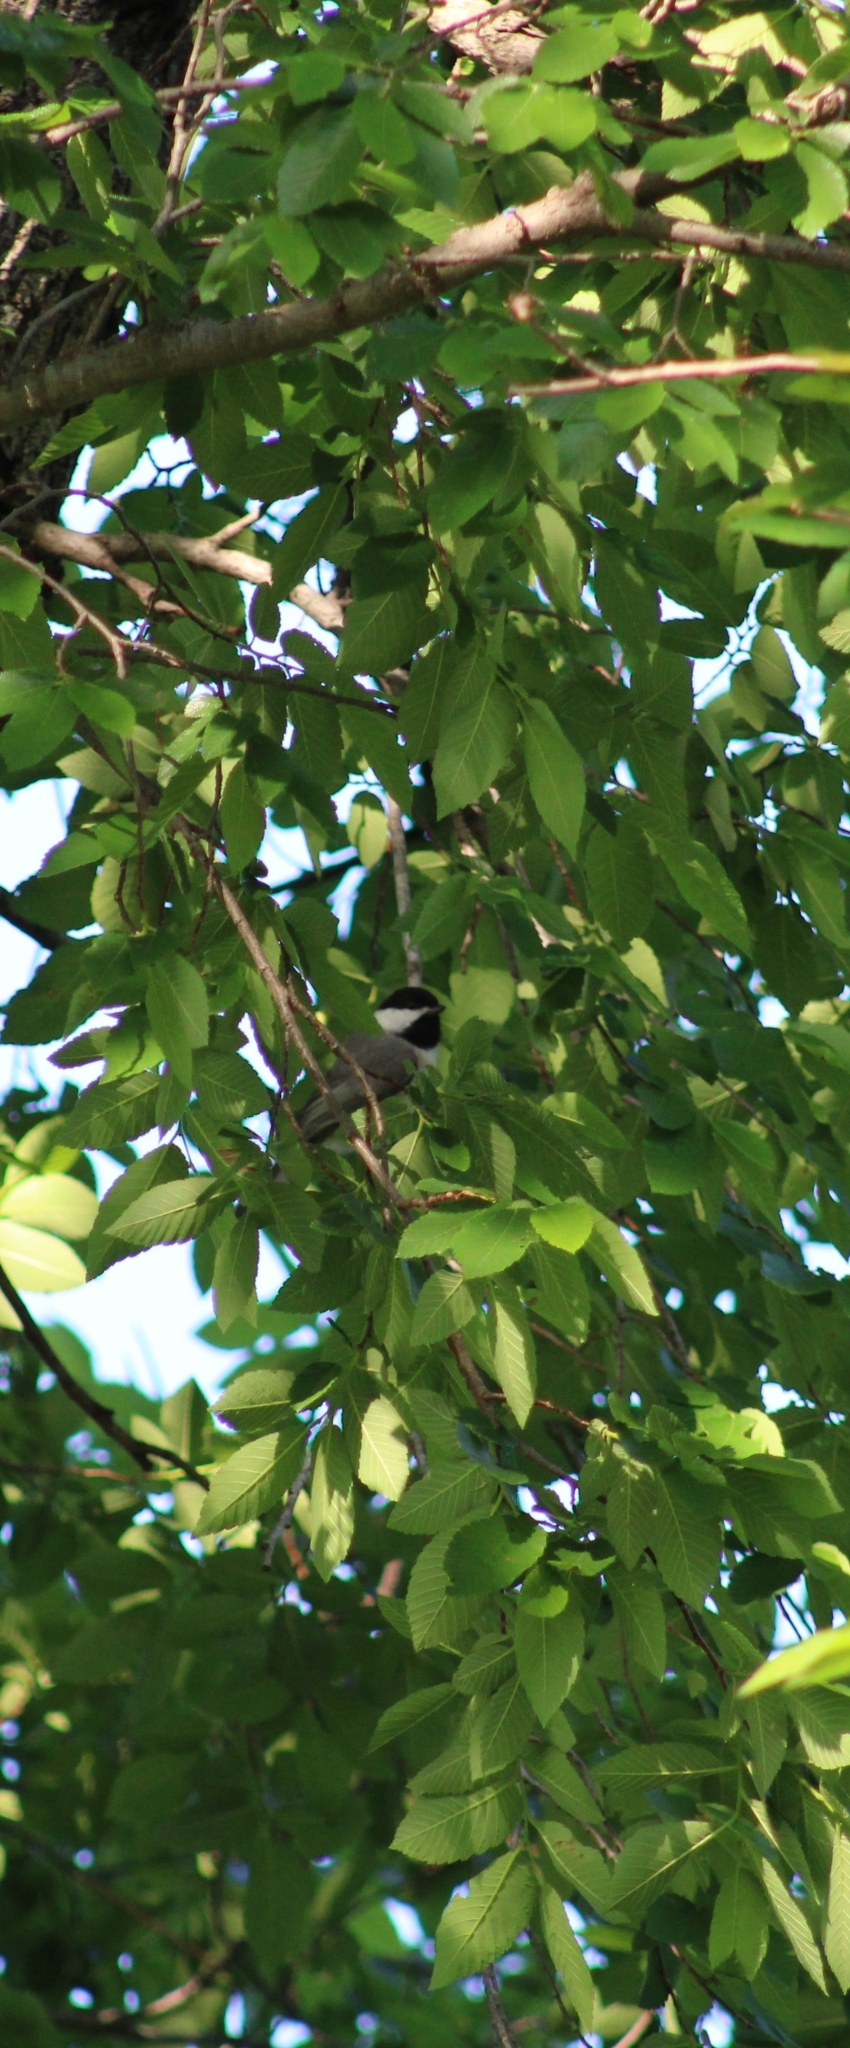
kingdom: Animalia
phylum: Chordata
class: Aves
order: Passeriformes
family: Paridae
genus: Poecile
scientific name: Poecile carolinensis
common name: Carolina chickadee
